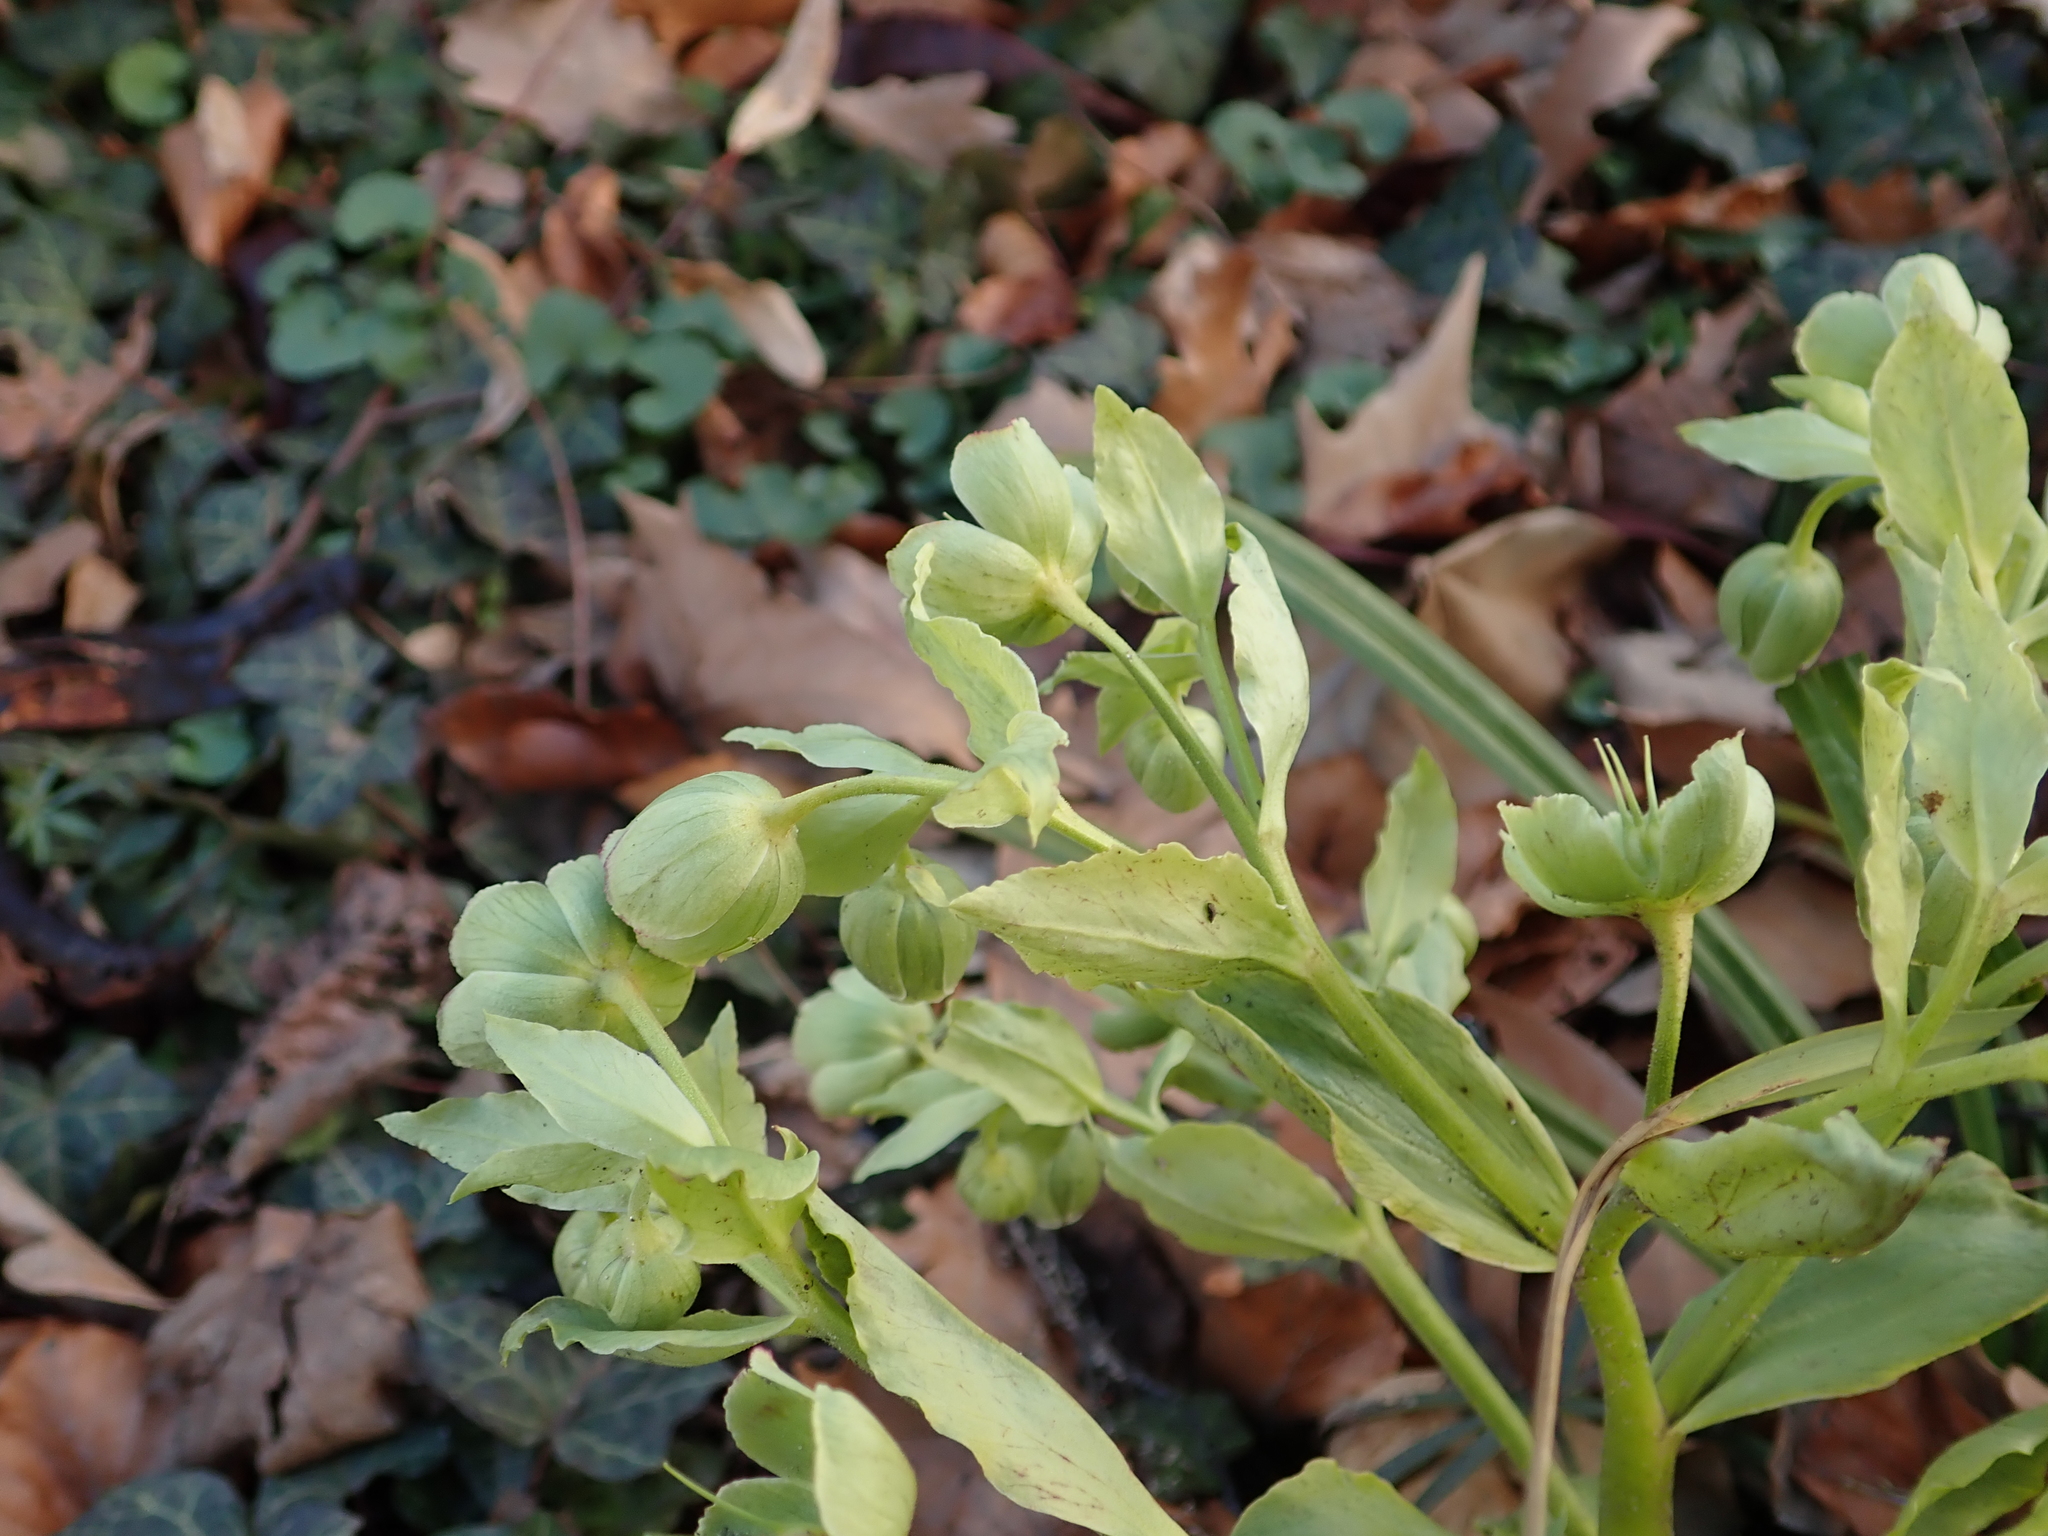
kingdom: Plantae
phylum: Tracheophyta
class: Magnoliopsida
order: Ranunculales
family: Ranunculaceae
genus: Helleborus
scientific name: Helleborus foetidus
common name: Stinking hellebore
